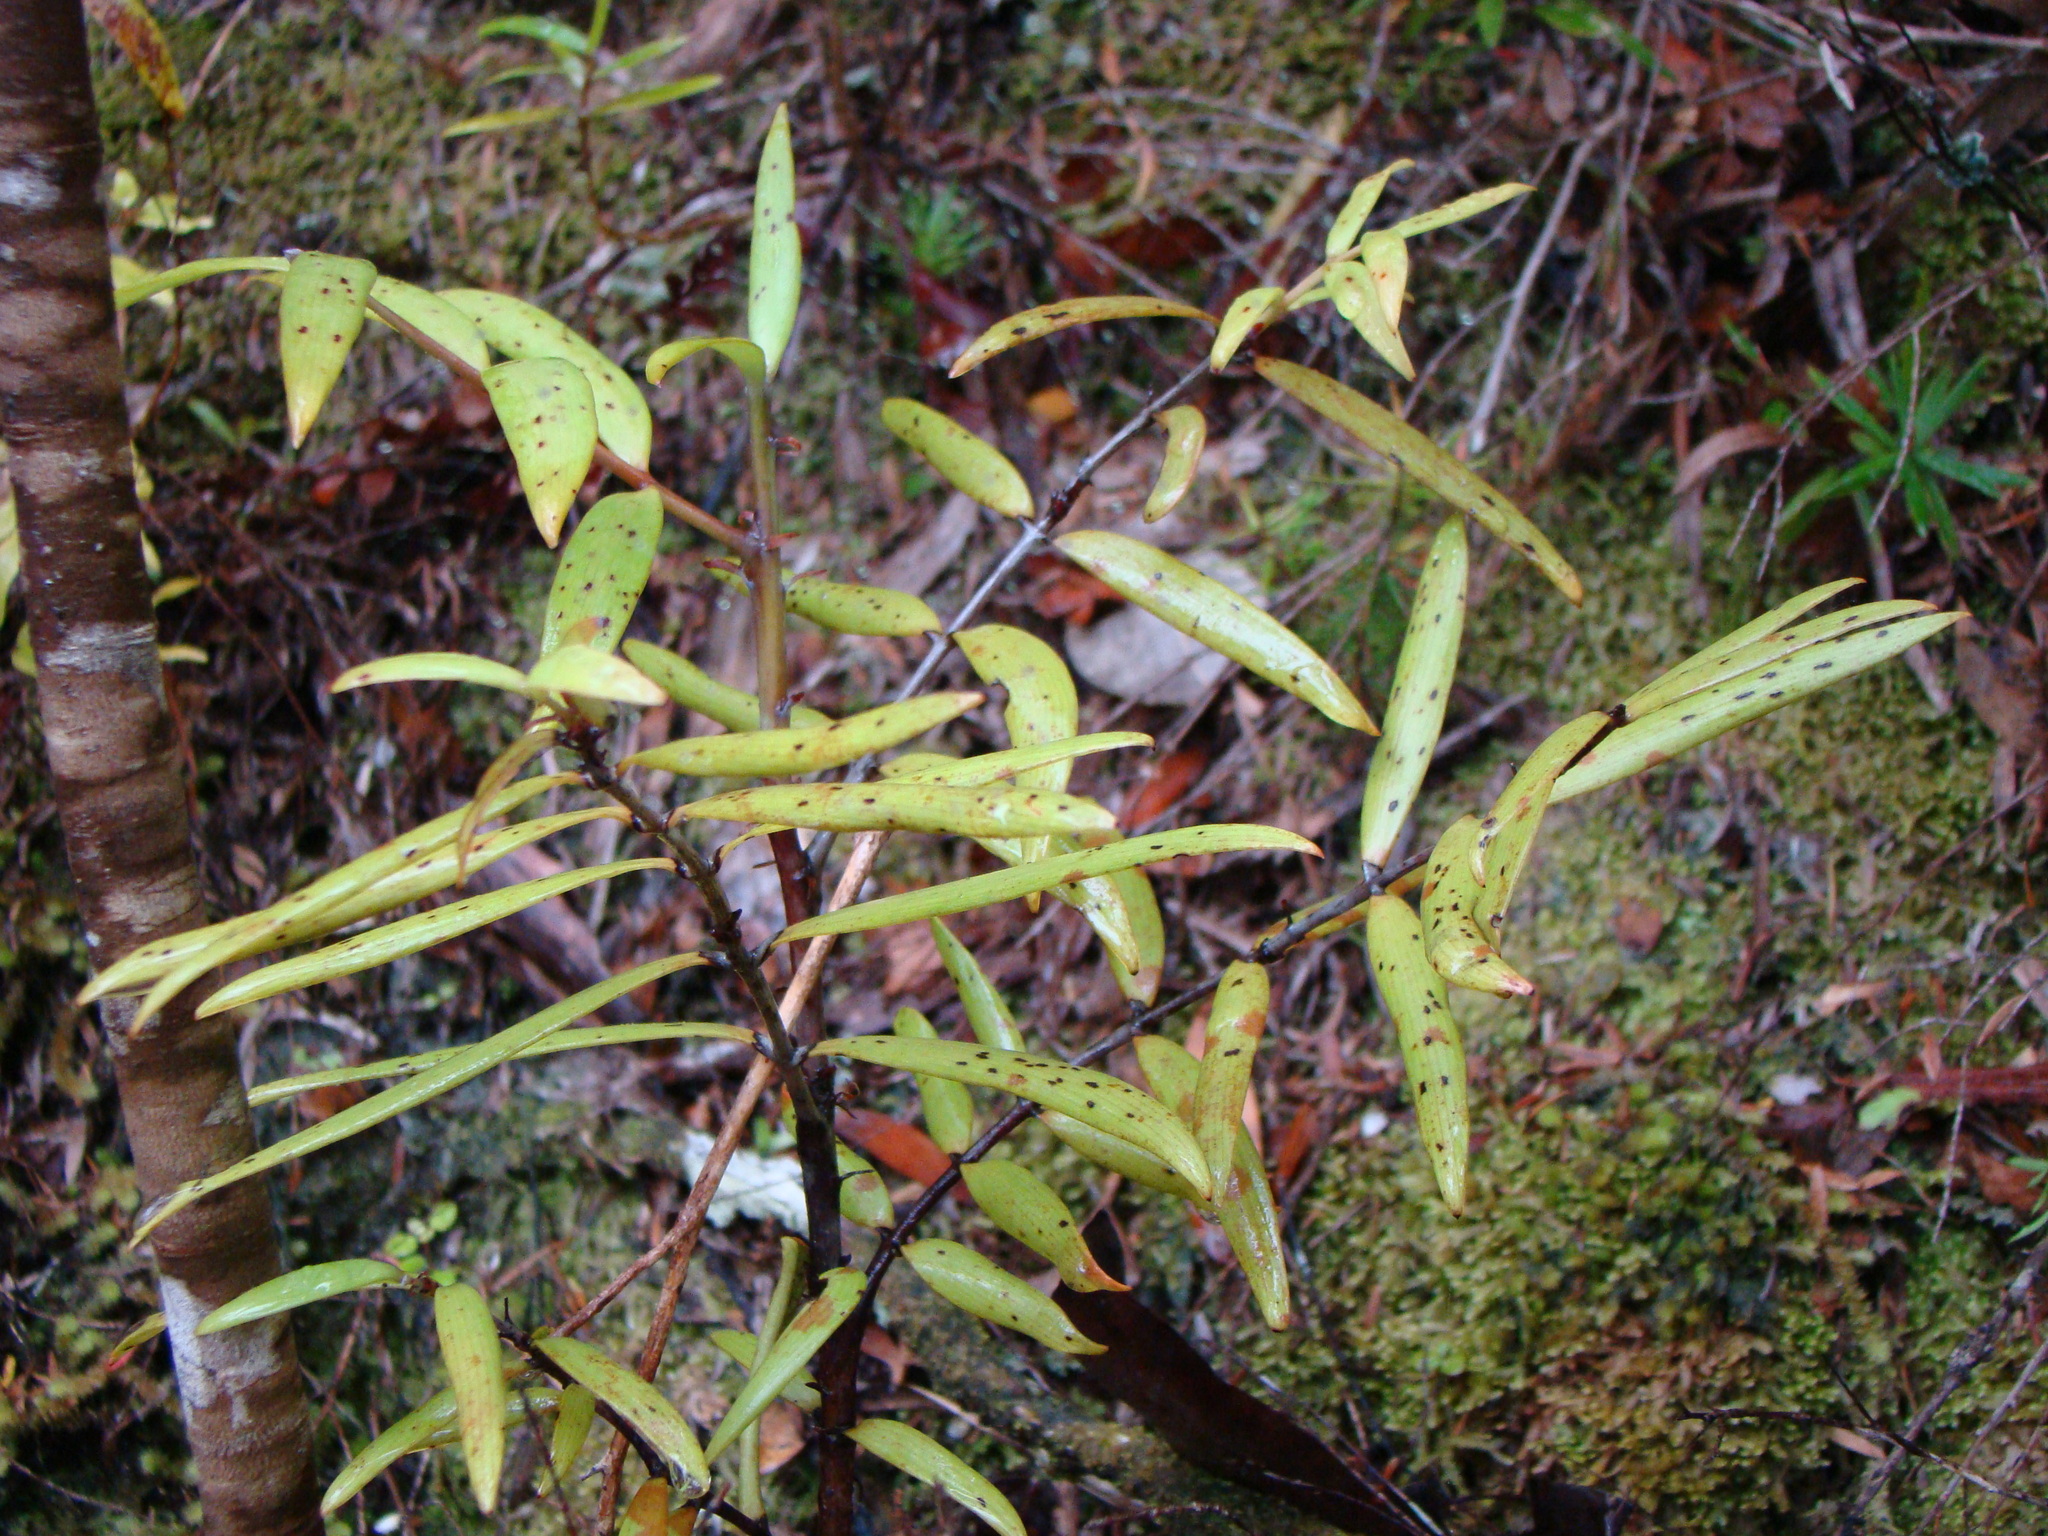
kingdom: Plantae
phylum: Tracheophyta
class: Pinopsida
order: Pinales
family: Araucariaceae
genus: Agathis
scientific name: Agathis australis
